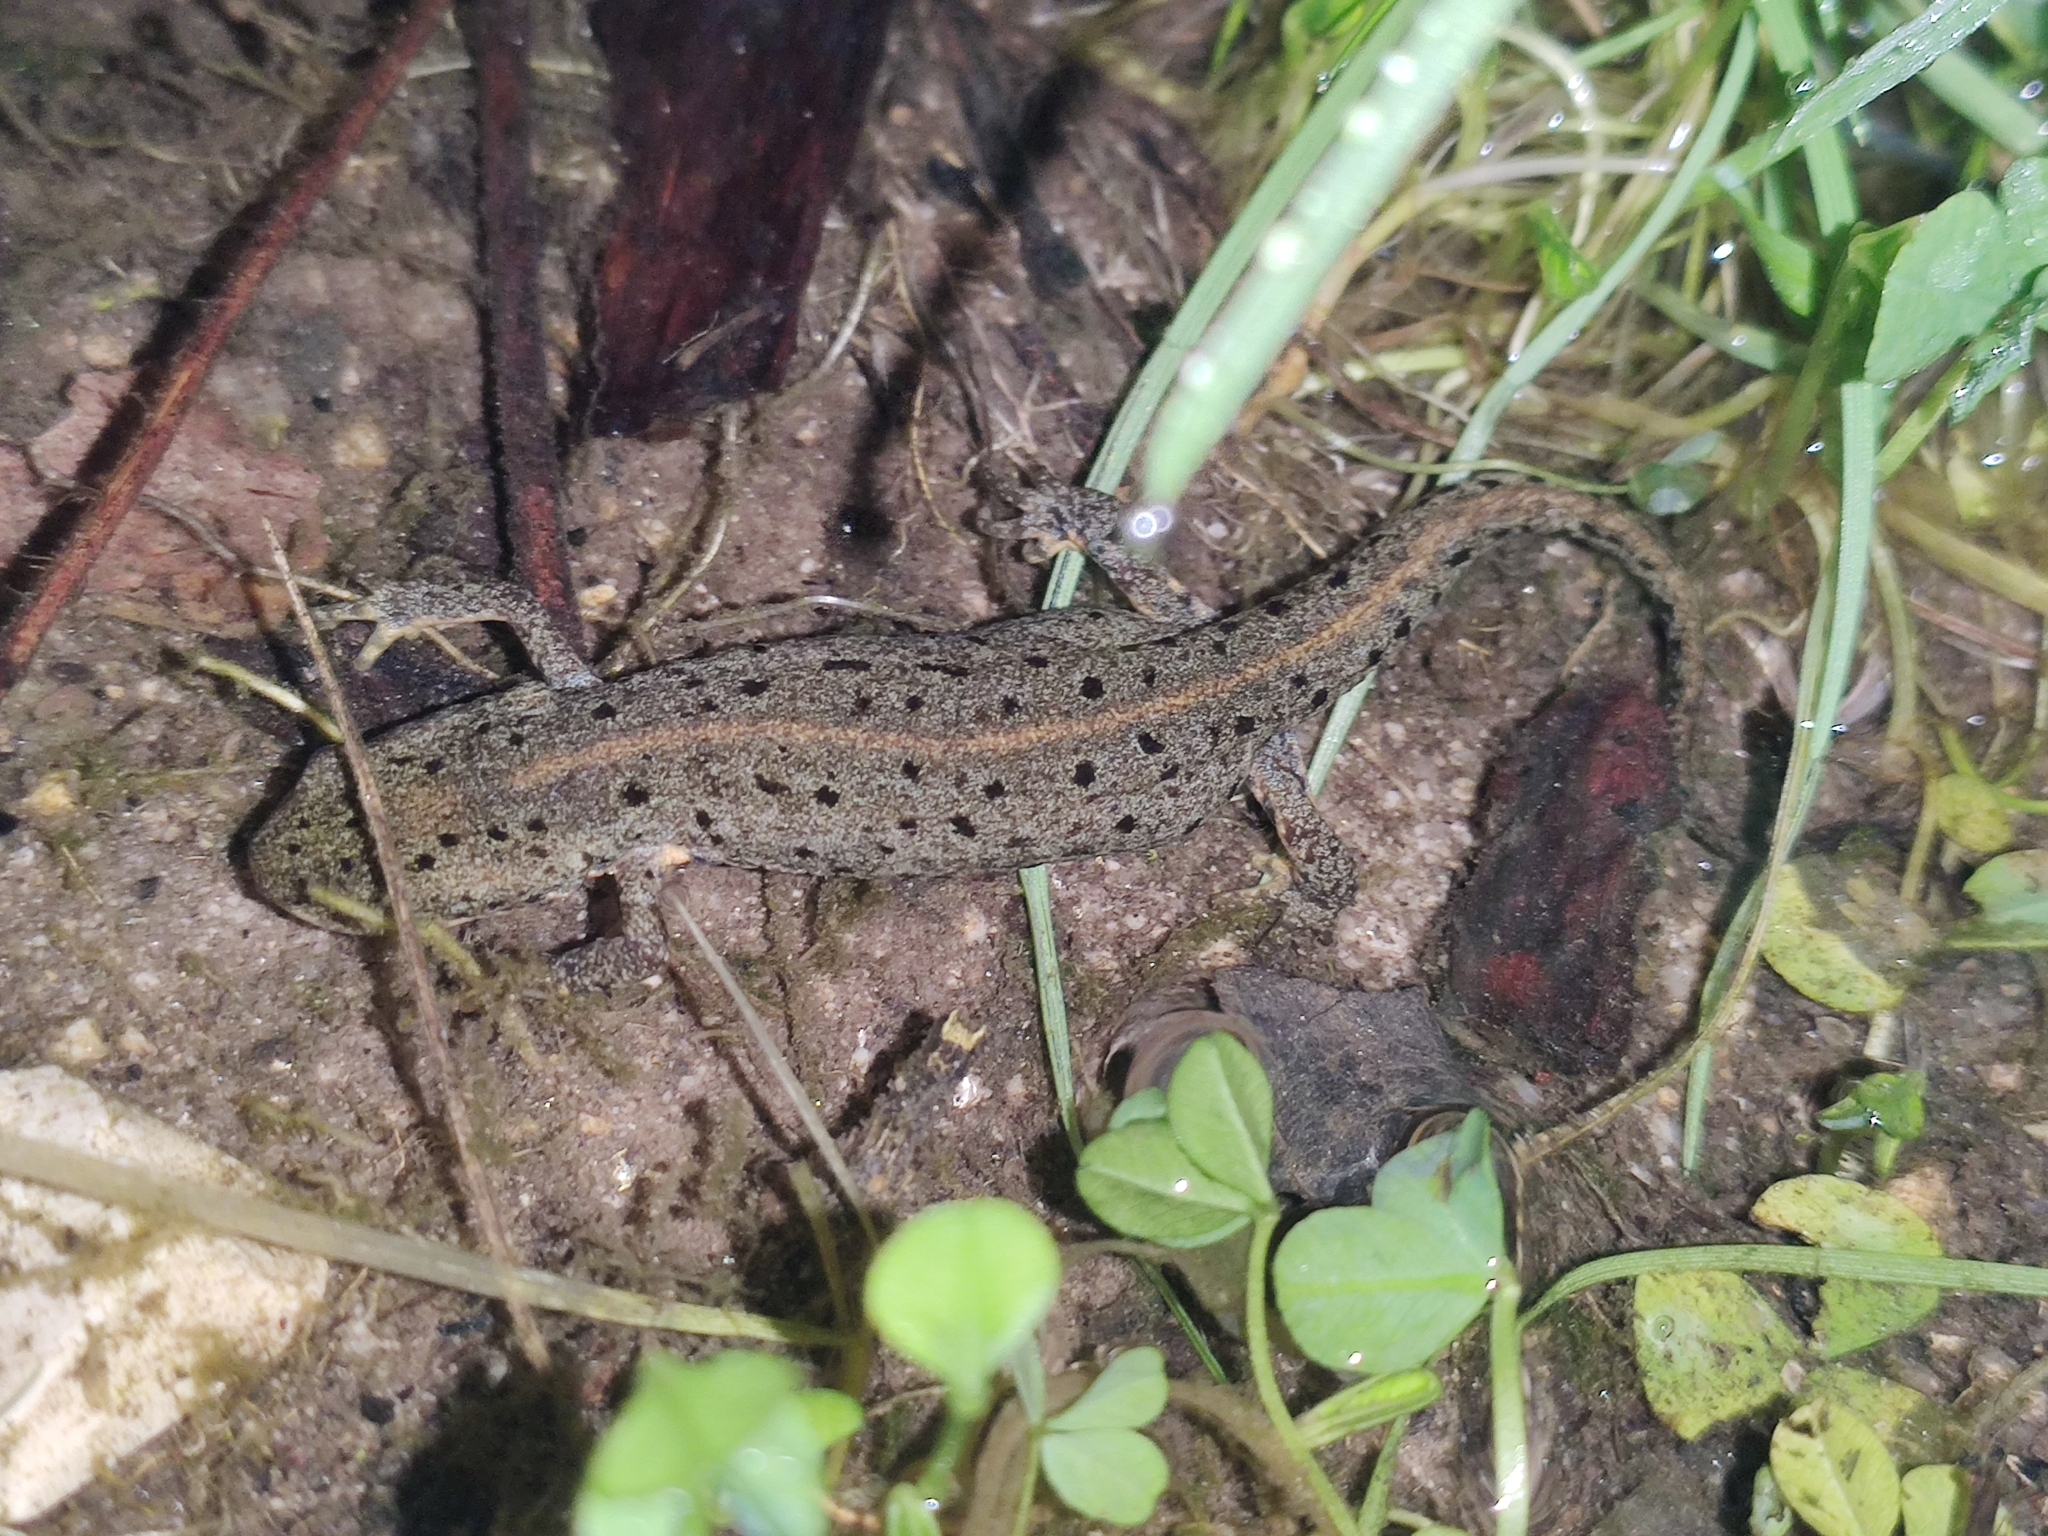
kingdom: Animalia
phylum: Chordata
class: Amphibia
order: Caudata
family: Salamandridae
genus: Lissotriton
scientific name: Lissotriton boscai
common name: Bosca's newt
